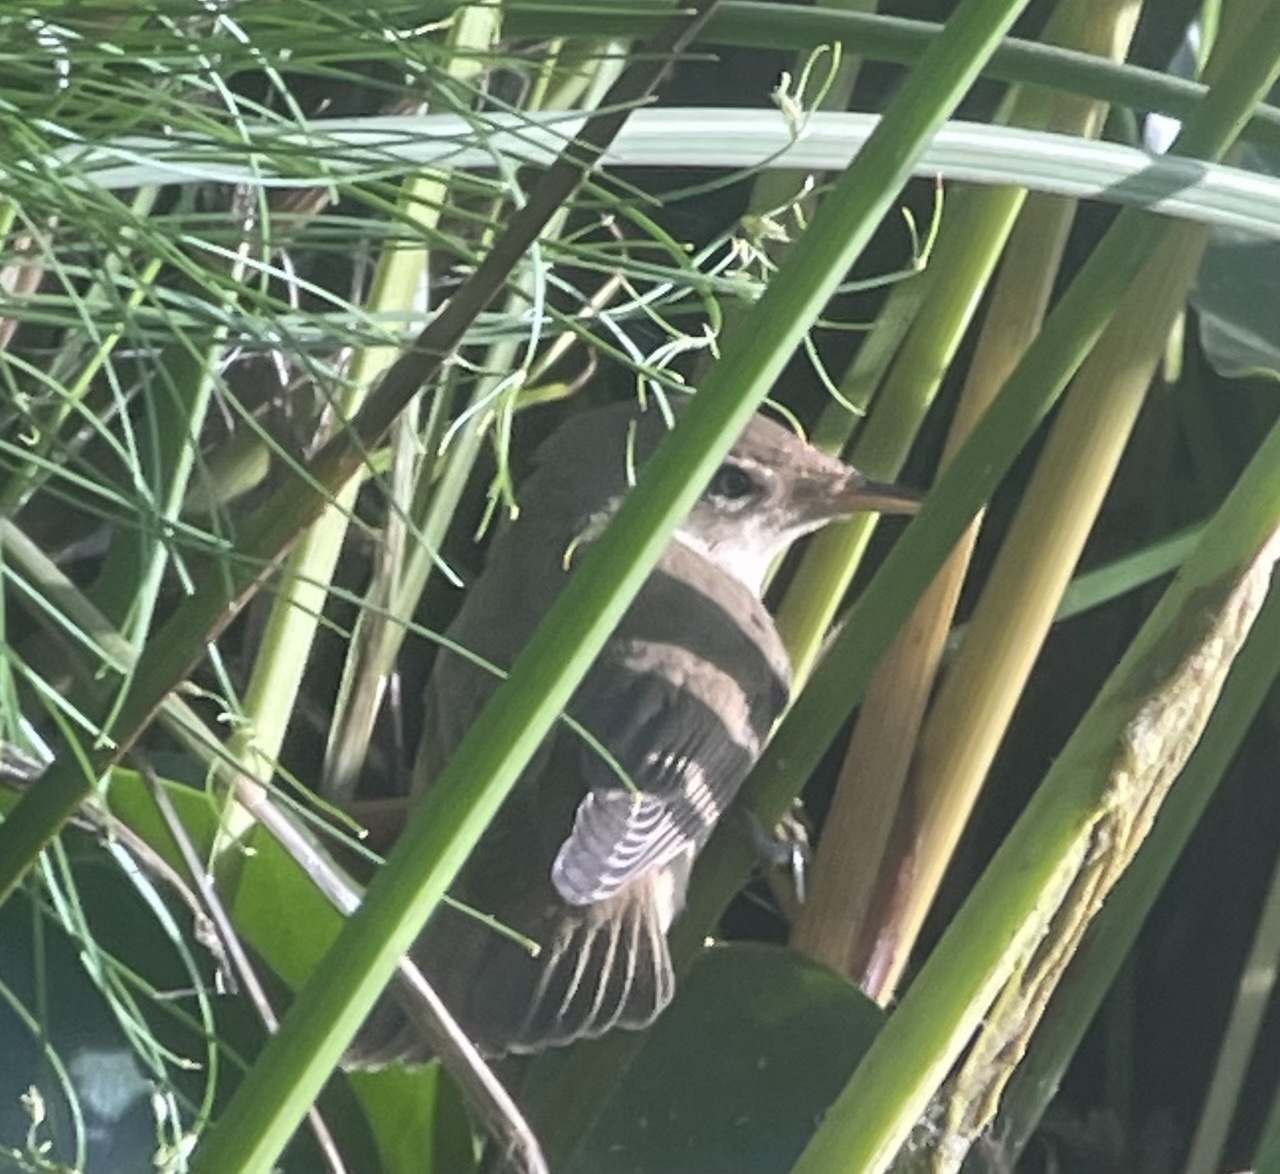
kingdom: Animalia
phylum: Chordata
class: Aves
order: Passeriformes
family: Acrocephalidae
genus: Acrocephalus
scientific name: Acrocephalus scirpaceus
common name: Eurasian reed warbler
